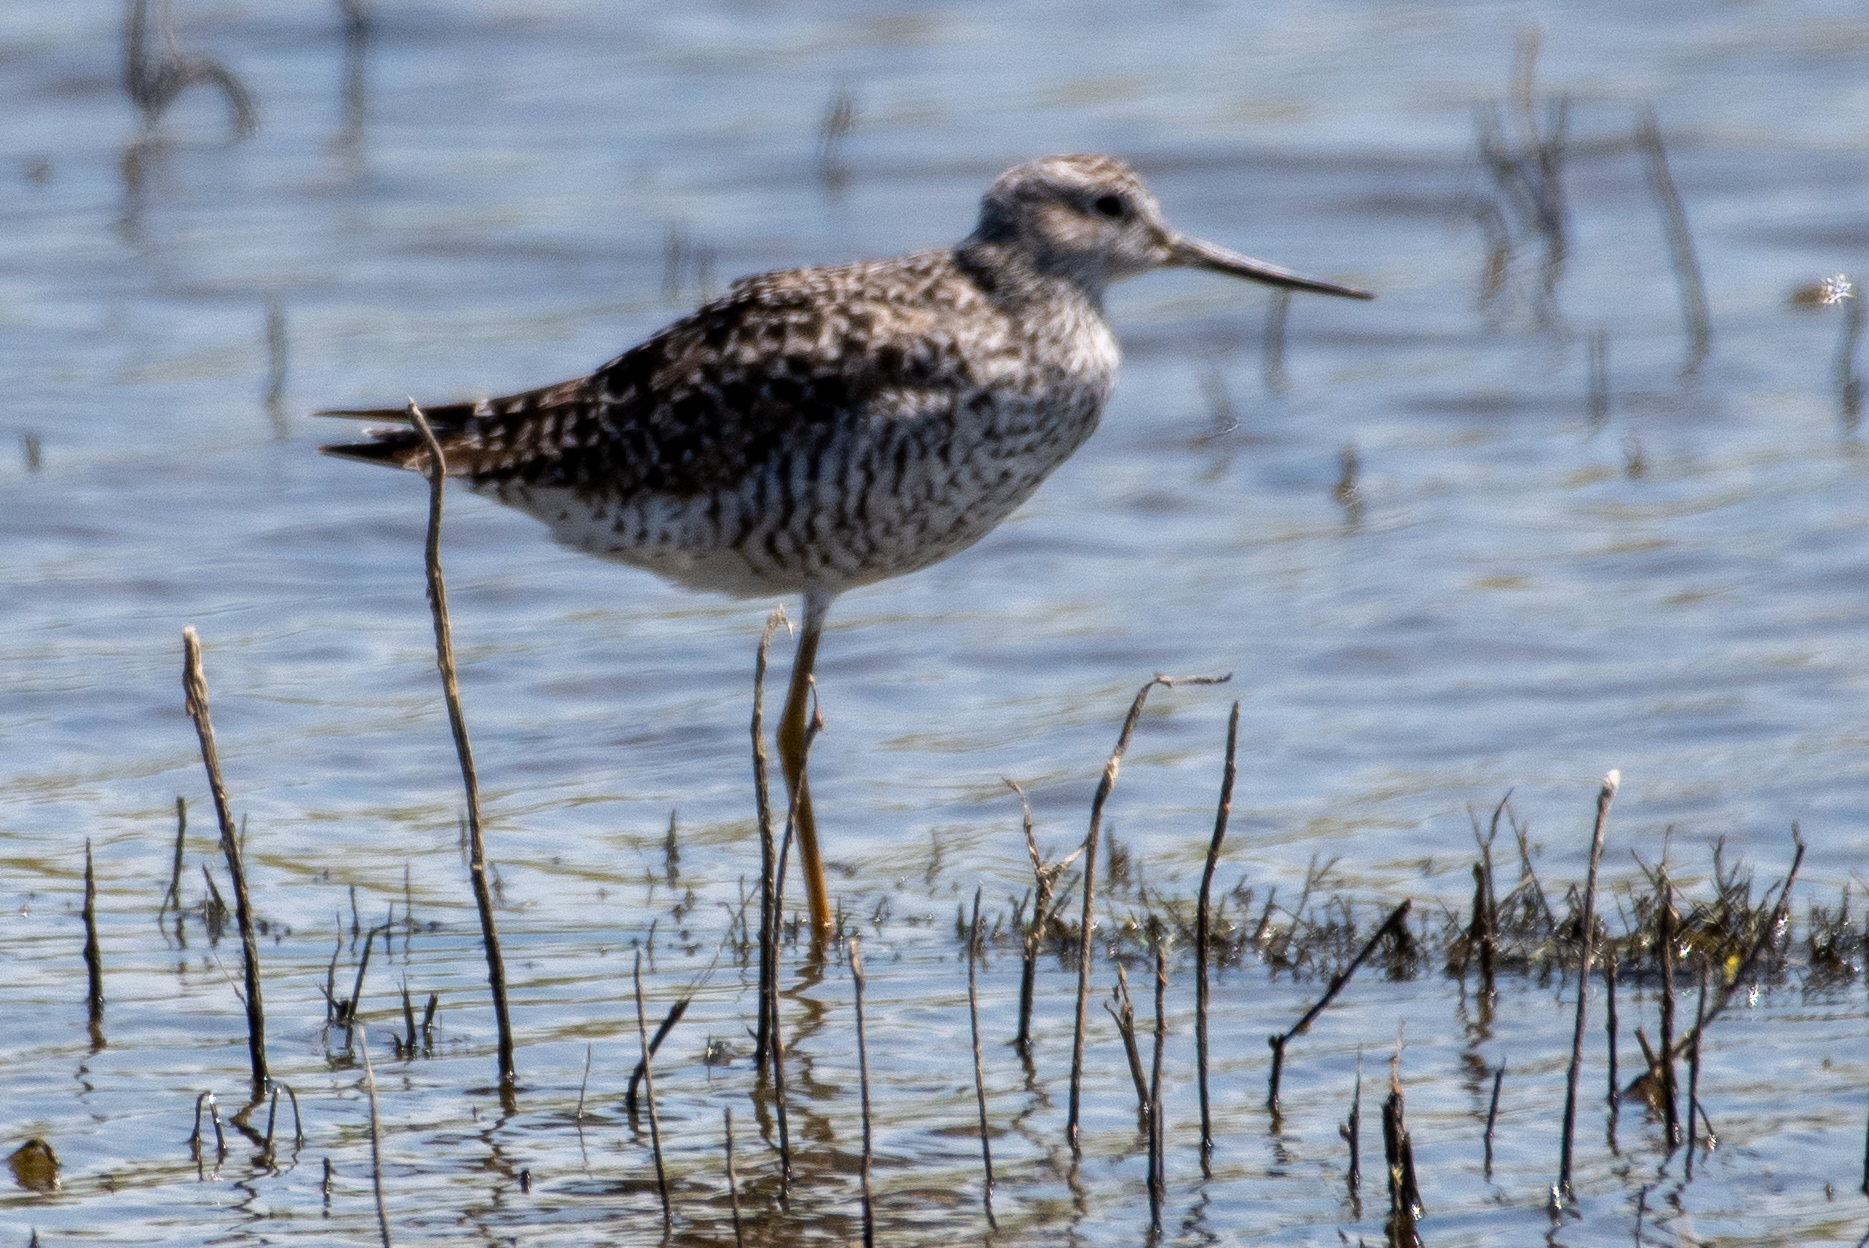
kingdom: Animalia
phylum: Chordata
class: Aves
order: Charadriiformes
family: Scolopacidae
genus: Tringa
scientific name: Tringa melanoleuca
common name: Greater yellowlegs
